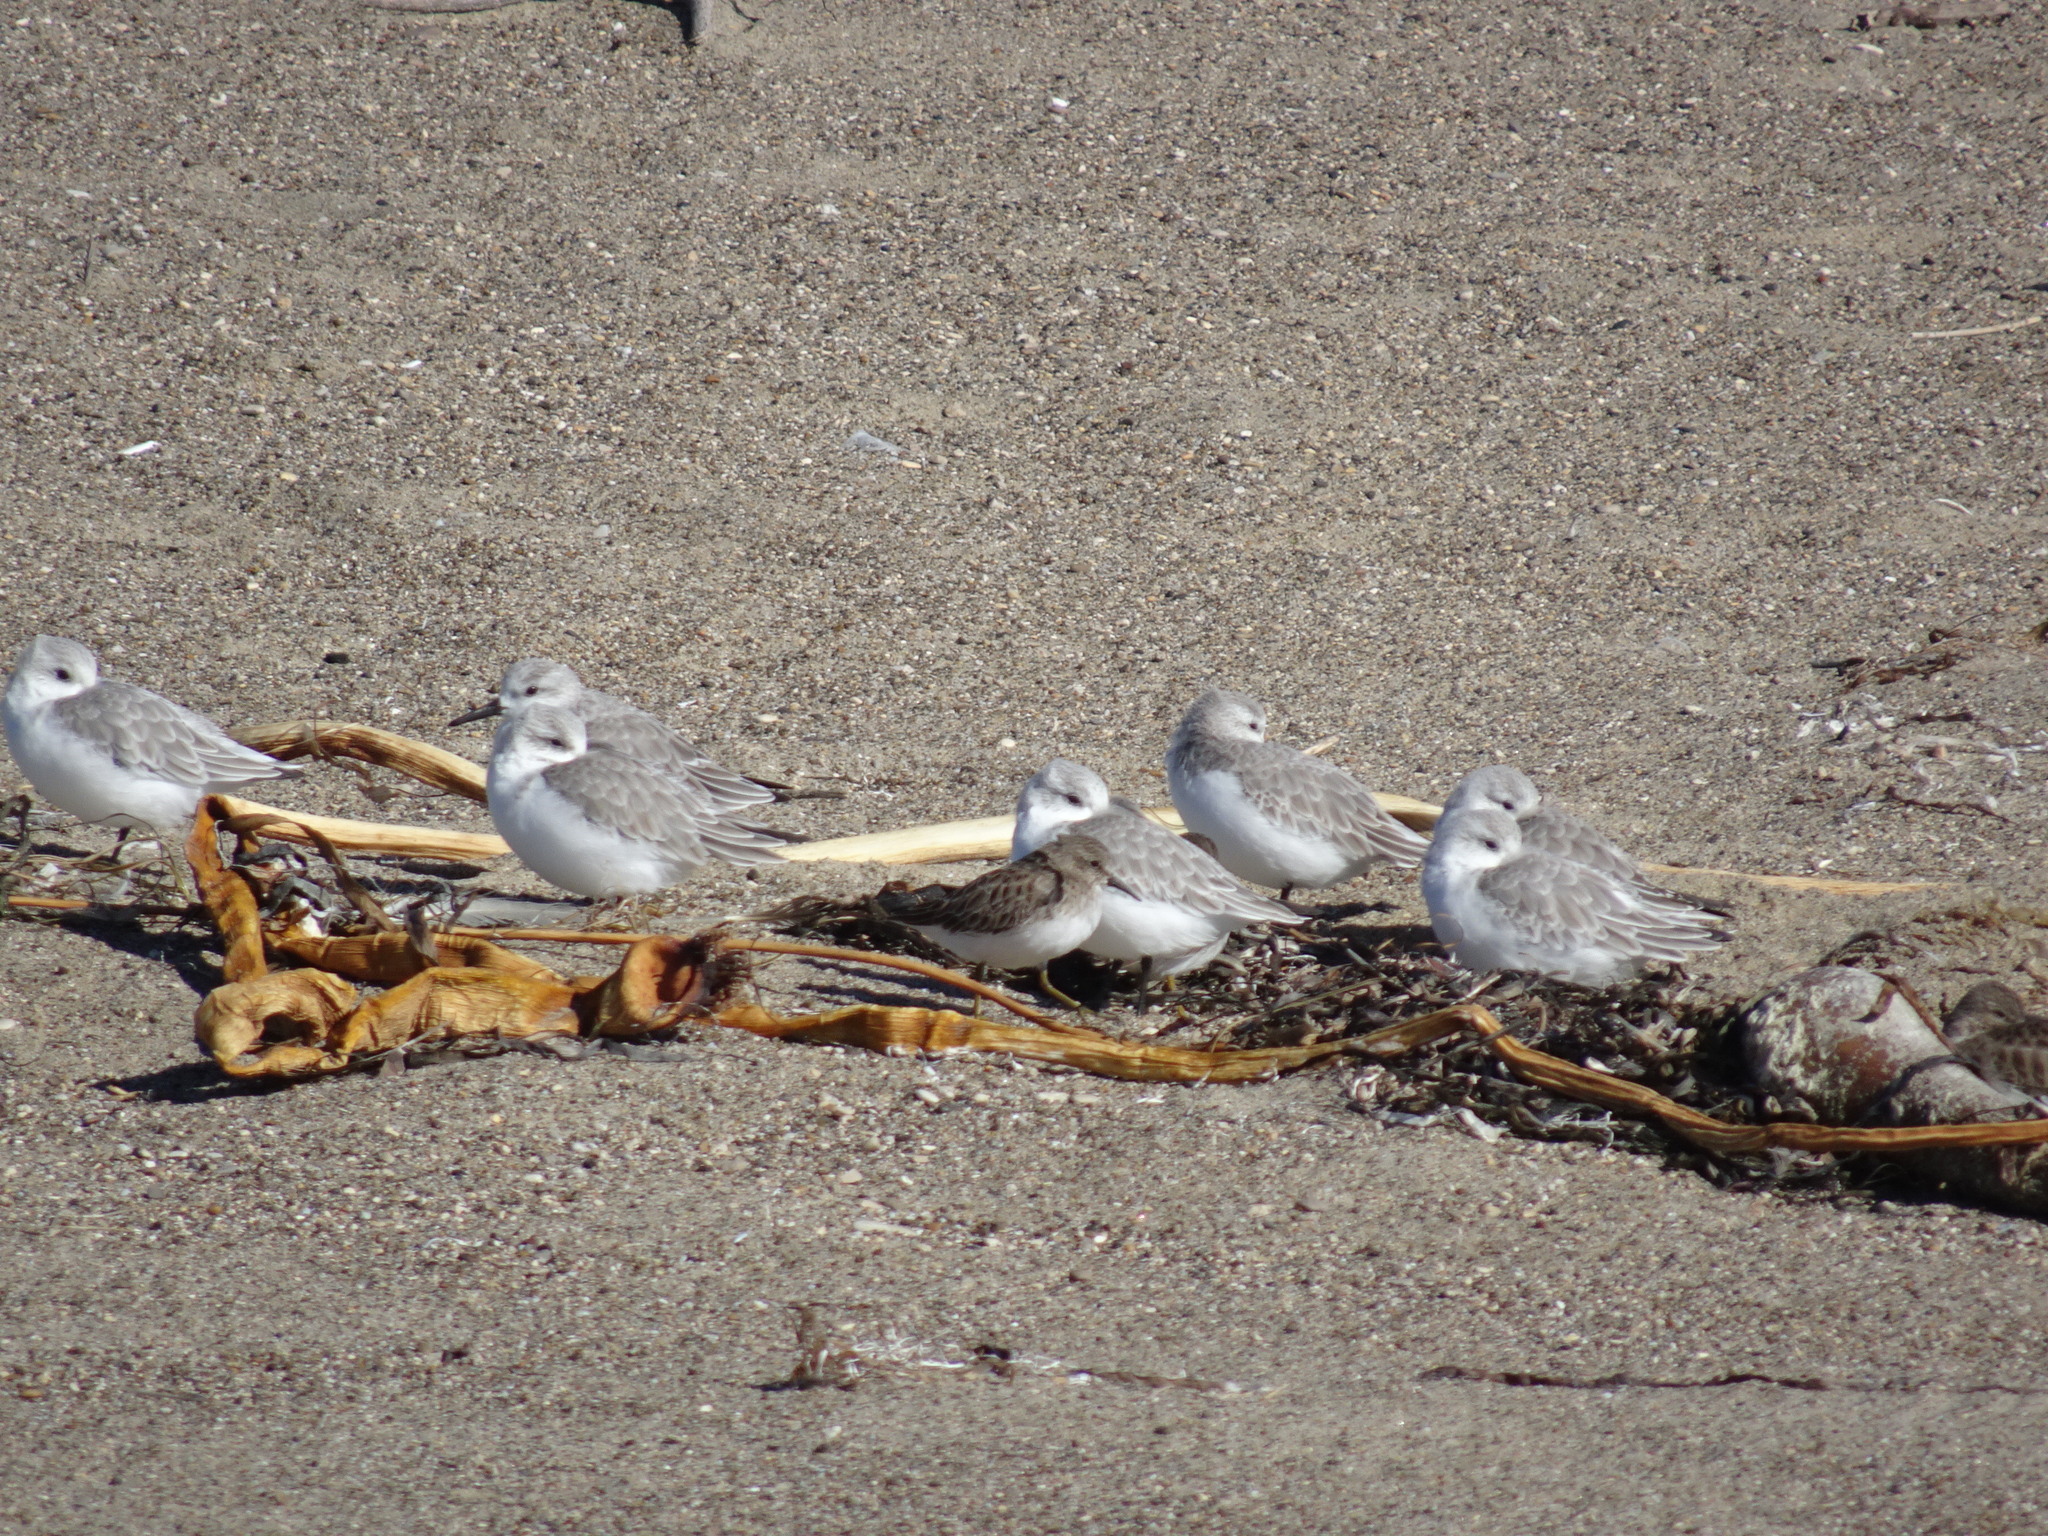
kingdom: Animalia
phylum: Chordata
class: Aves
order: Charadriiformes
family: Scolopacidae
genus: Calidris
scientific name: Calidris alba
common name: Sanderling
